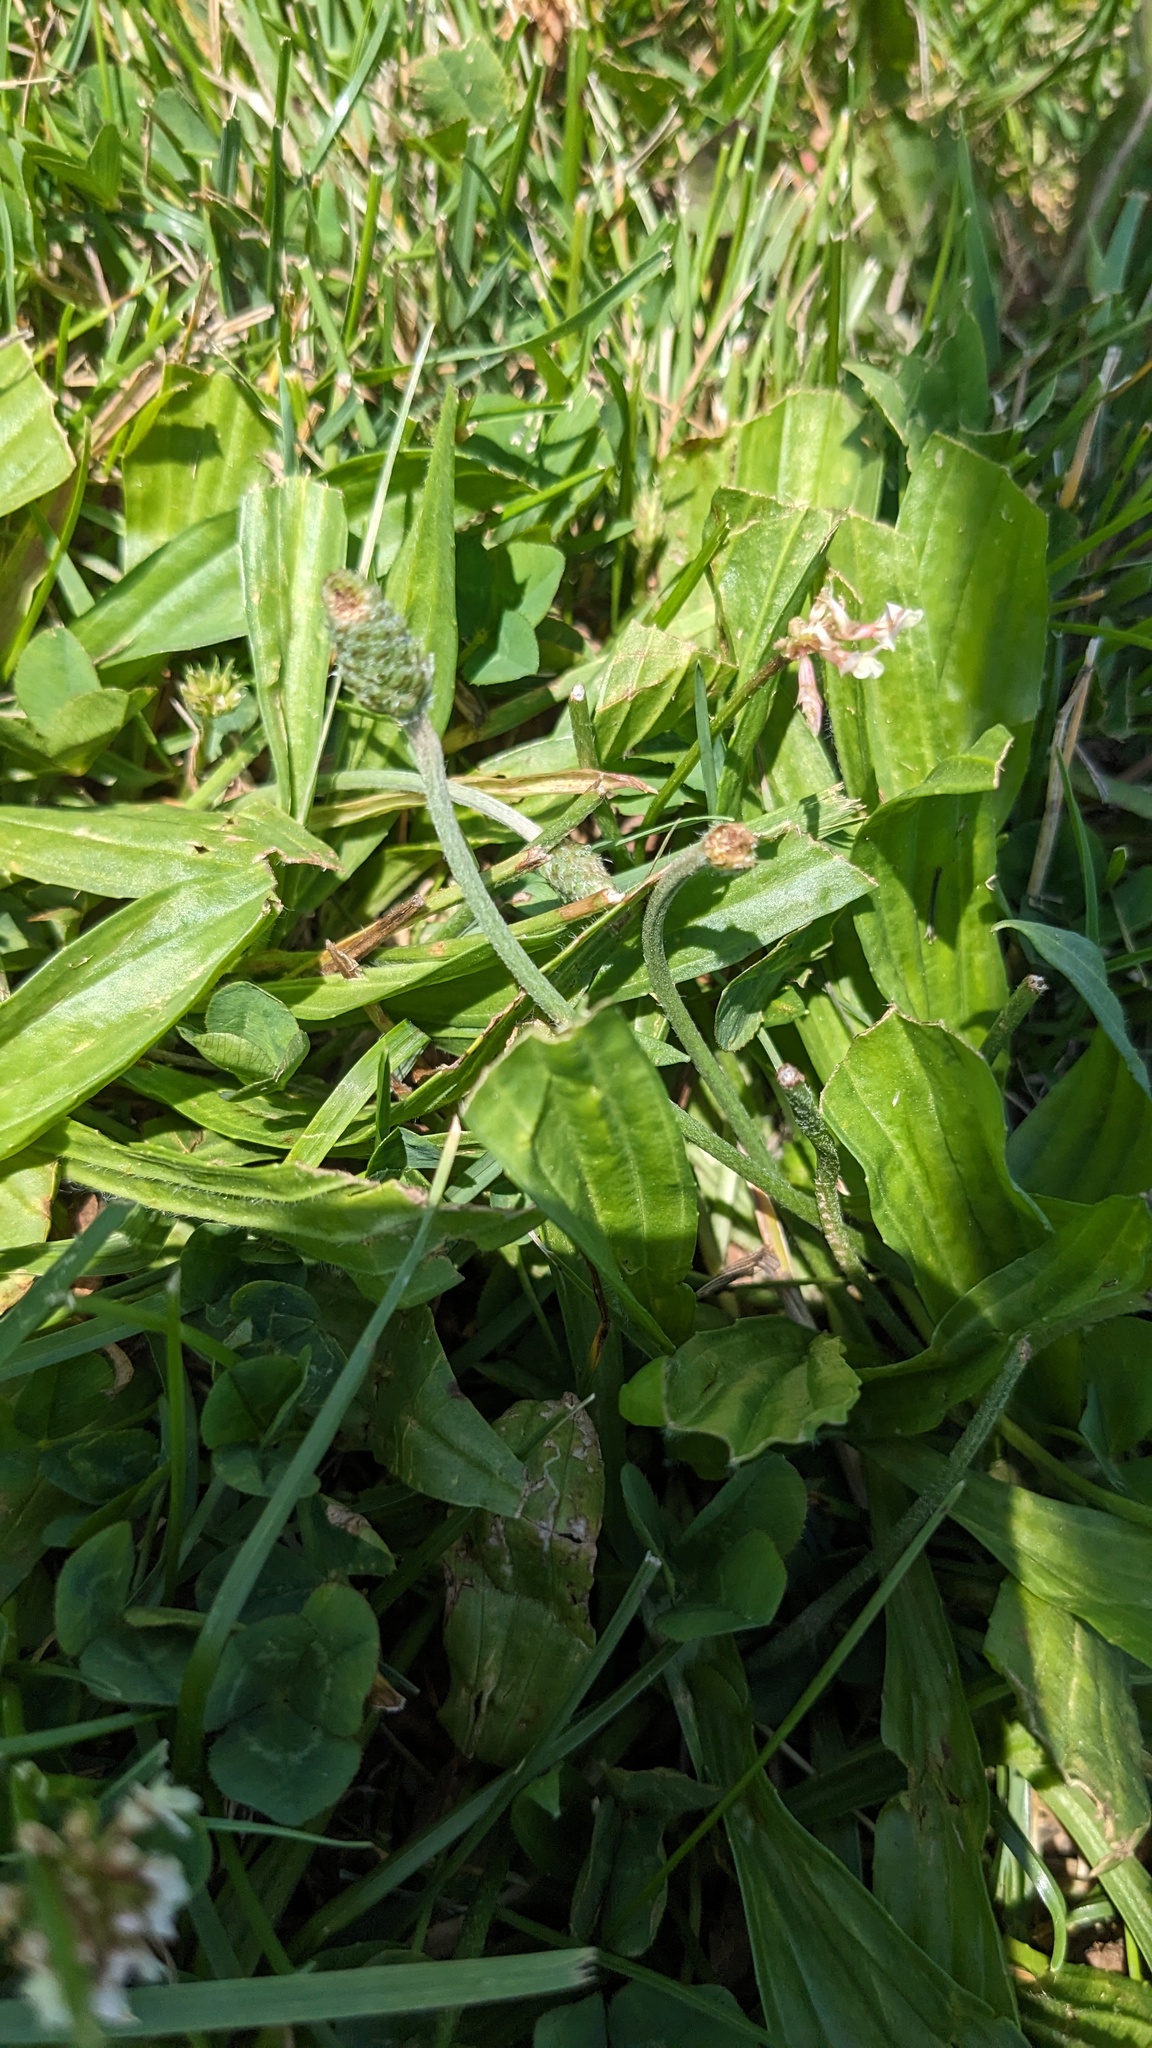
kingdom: Plantae
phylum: Tracheophyta
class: Magnoliopsida
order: Lamiales
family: Plantaginaceae
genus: Plantago
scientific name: Plantago lanceolata
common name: Ribwort plantain
